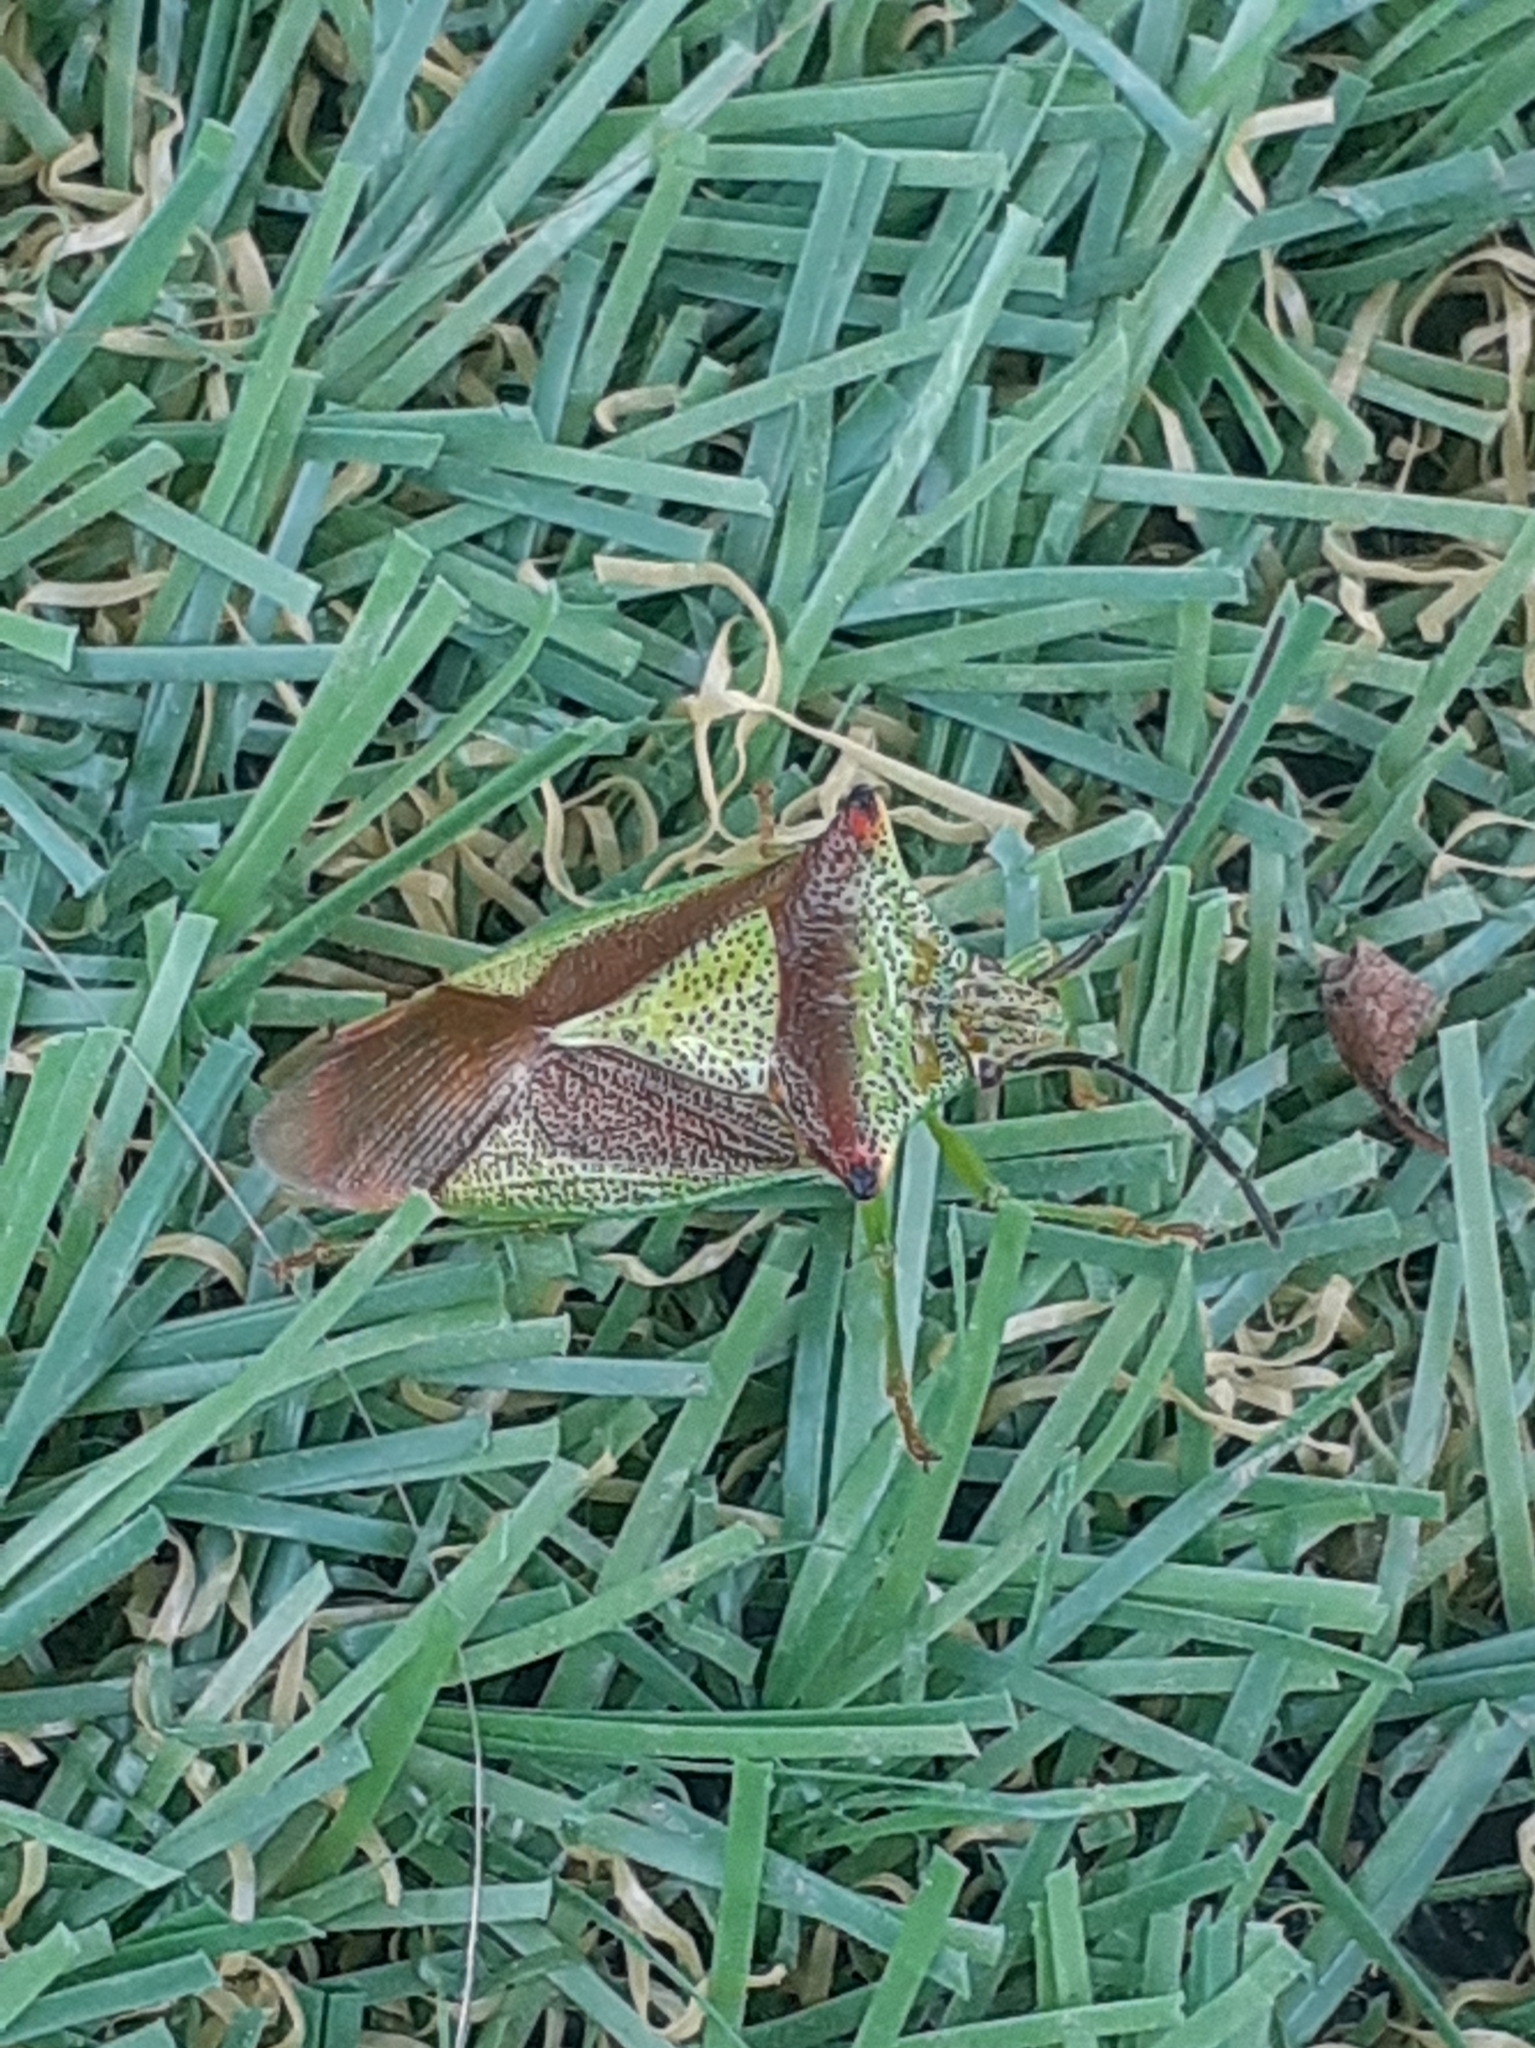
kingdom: Animalia
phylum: Arthropoda
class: Insecta
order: Hemiptera
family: Acanthosomatidae
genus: Acanthosoma
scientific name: Acanthosoma haemorrhoidale
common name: Hawthorn shieldbug
